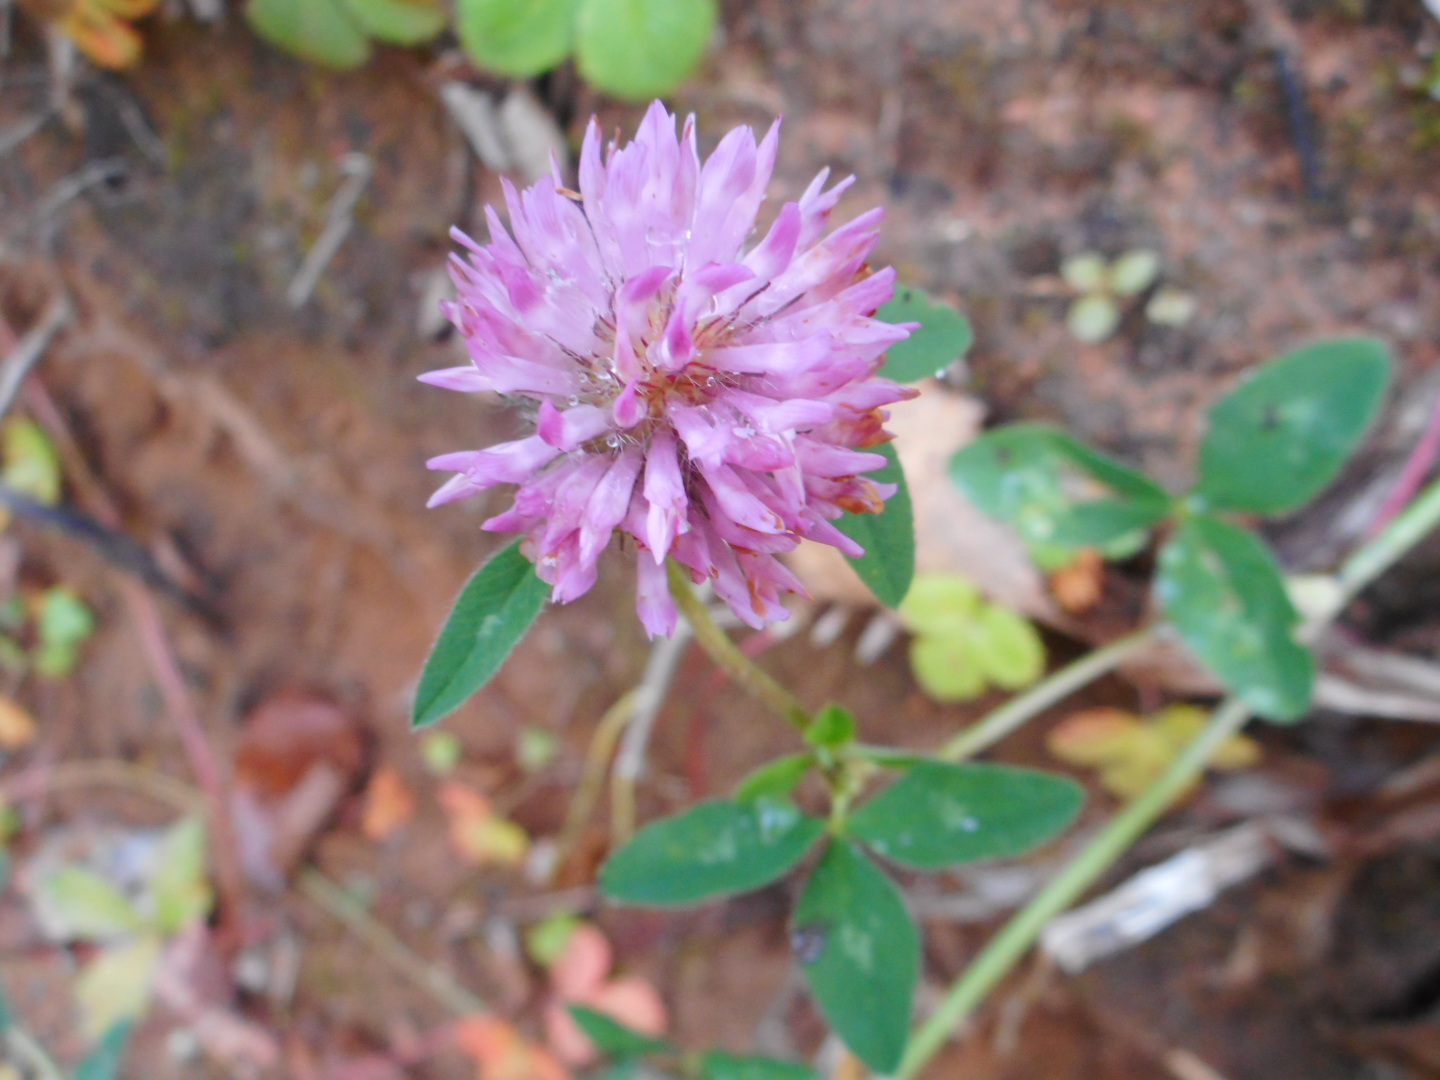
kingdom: Plantae
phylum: Tracheophyta
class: Magnoliopsida
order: Fabales
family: Fabaceae
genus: Trifolium
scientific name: Trifolium pratense
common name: Red clover
